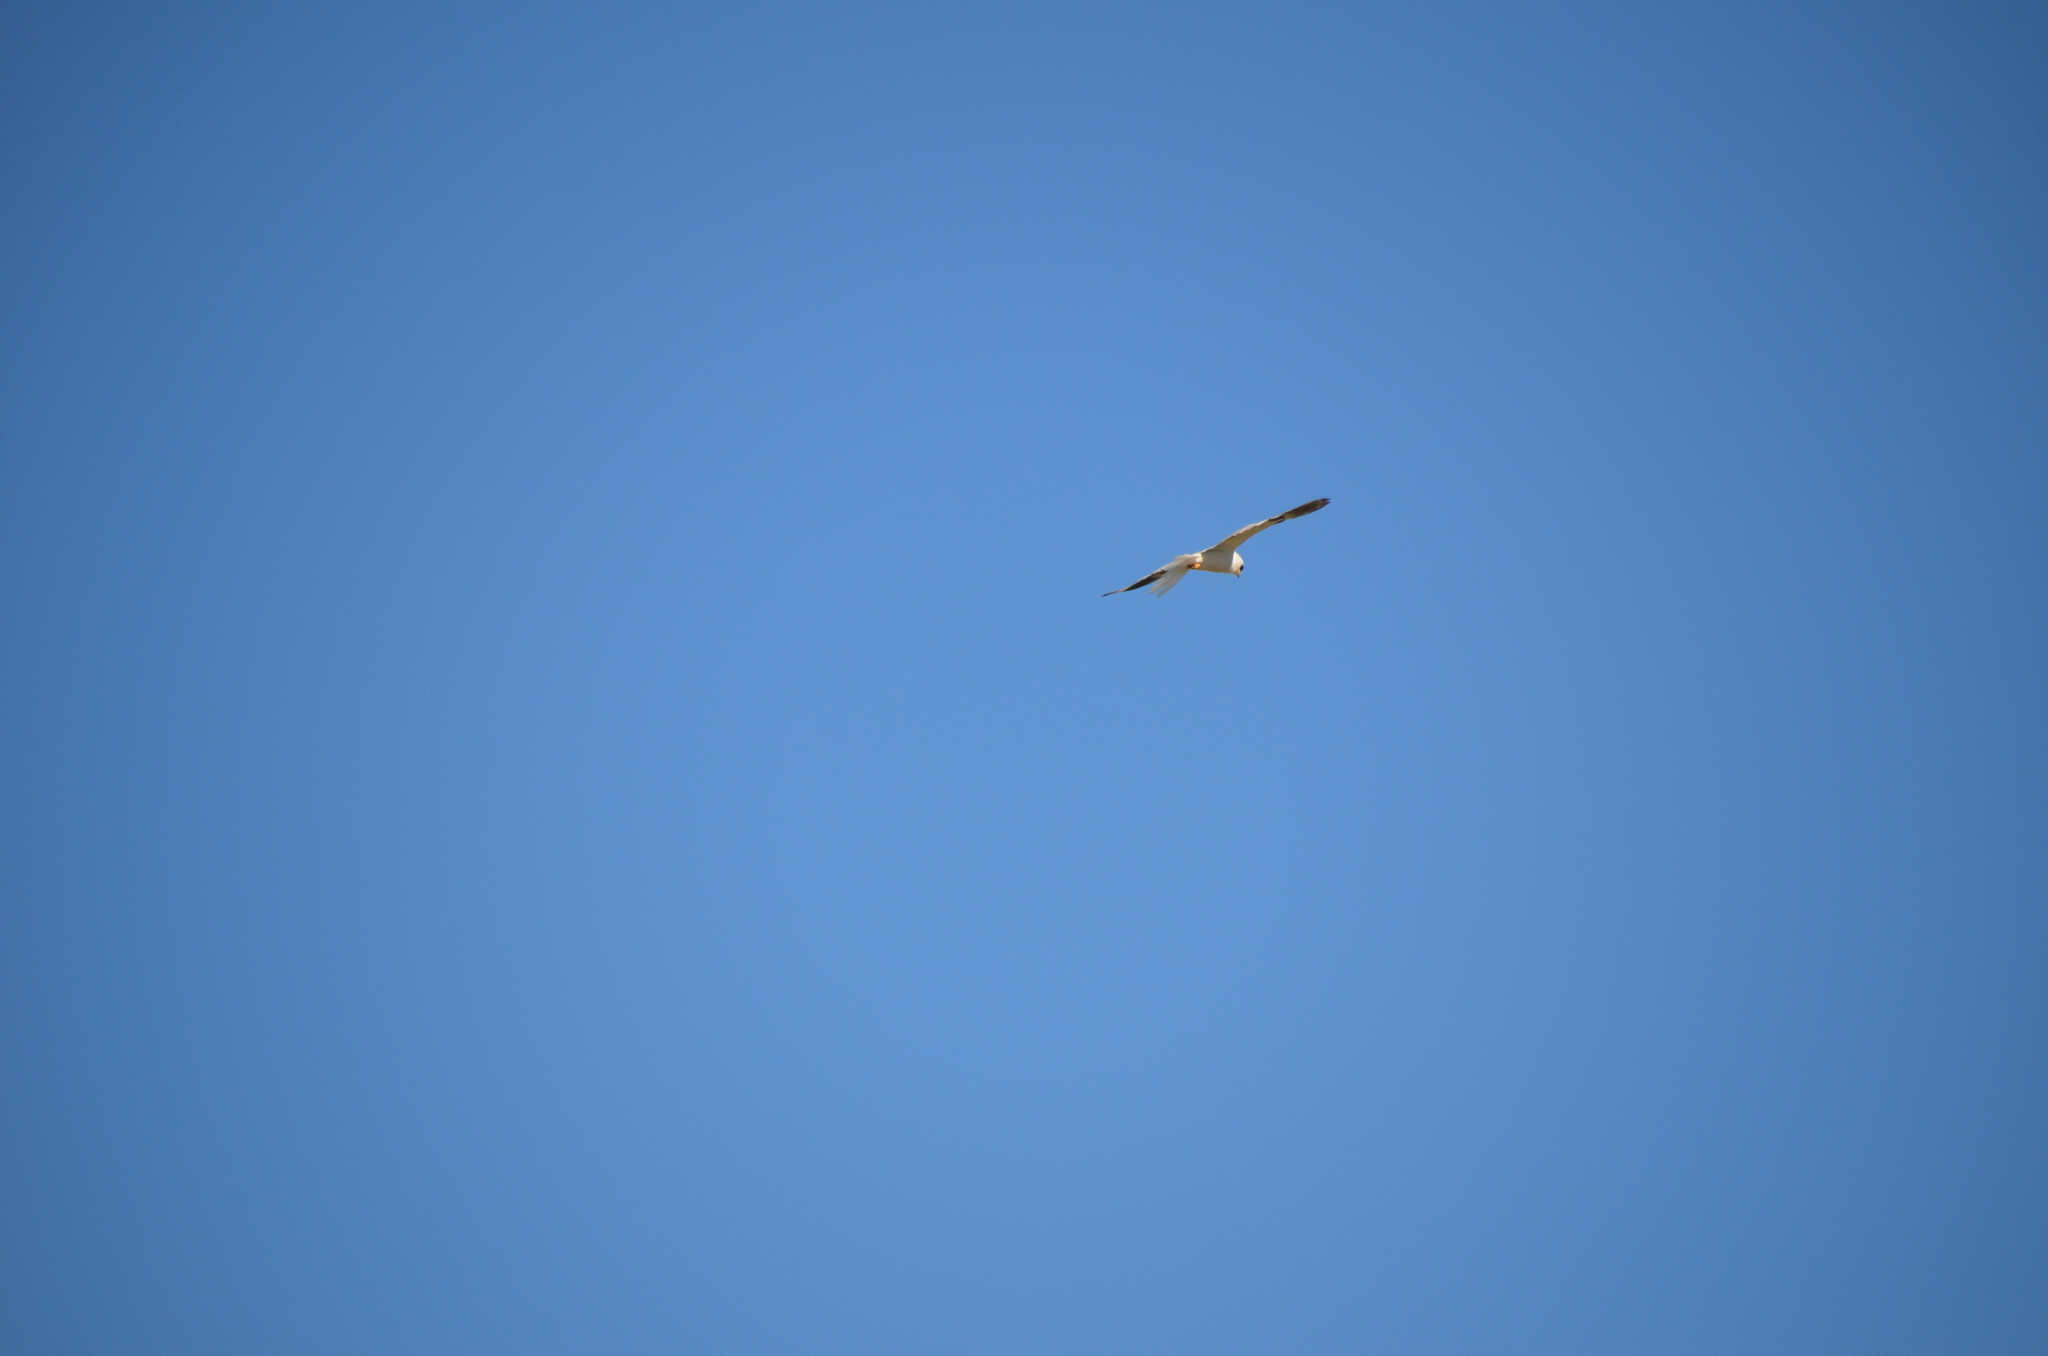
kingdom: Animalia
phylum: Chordata
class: Aves
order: Accipitriformes
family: Accipitridae
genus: Elanus
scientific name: Elanus leucurus
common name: White-tailed kite
